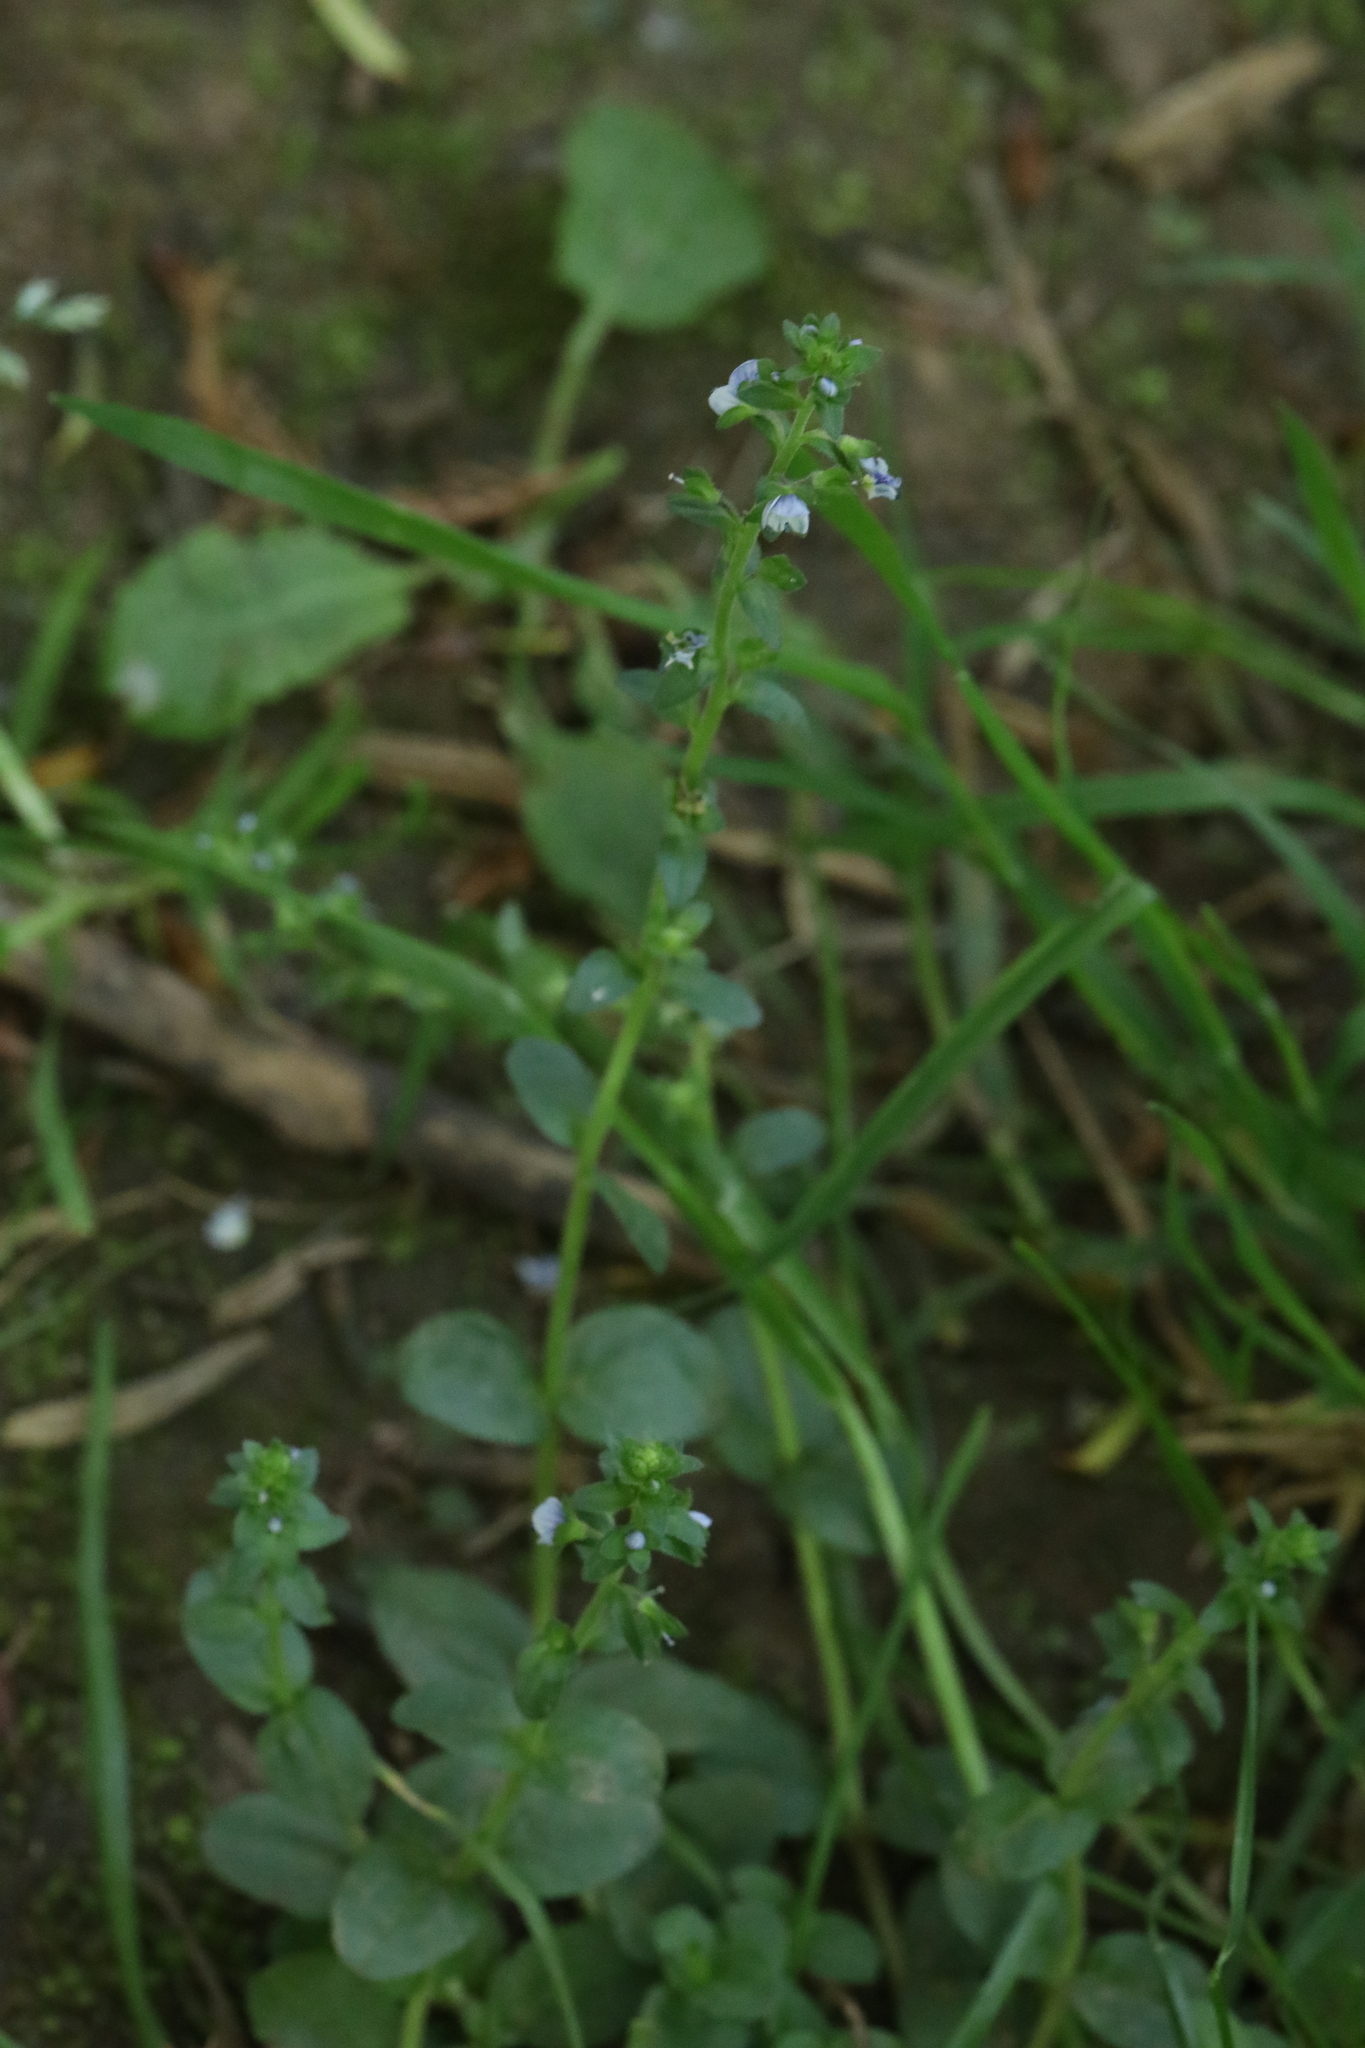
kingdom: Plantae
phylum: Tracheophyta
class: Magnoliopsida
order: Lamiales
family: Plantaginaceae
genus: Veronica
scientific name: Veronica serpyllifolia
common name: Thyme-leaved speedwell
